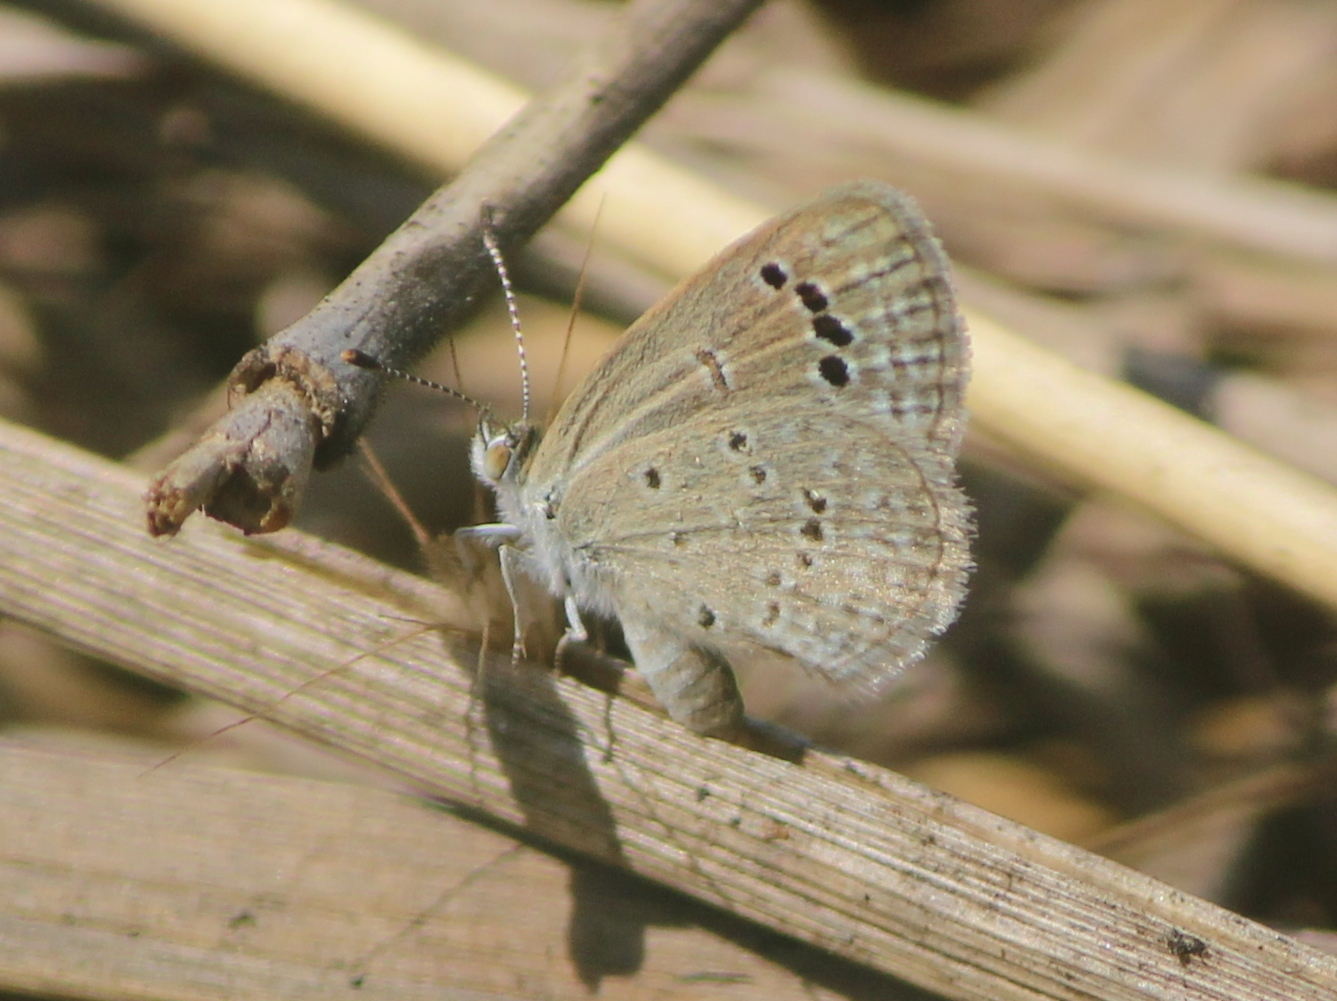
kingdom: Animalia
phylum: Arthropoda
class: Insecta
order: Lepidoptera
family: Lycaenidae
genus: Zizina
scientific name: Zizina otis
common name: Lesser grass blue
